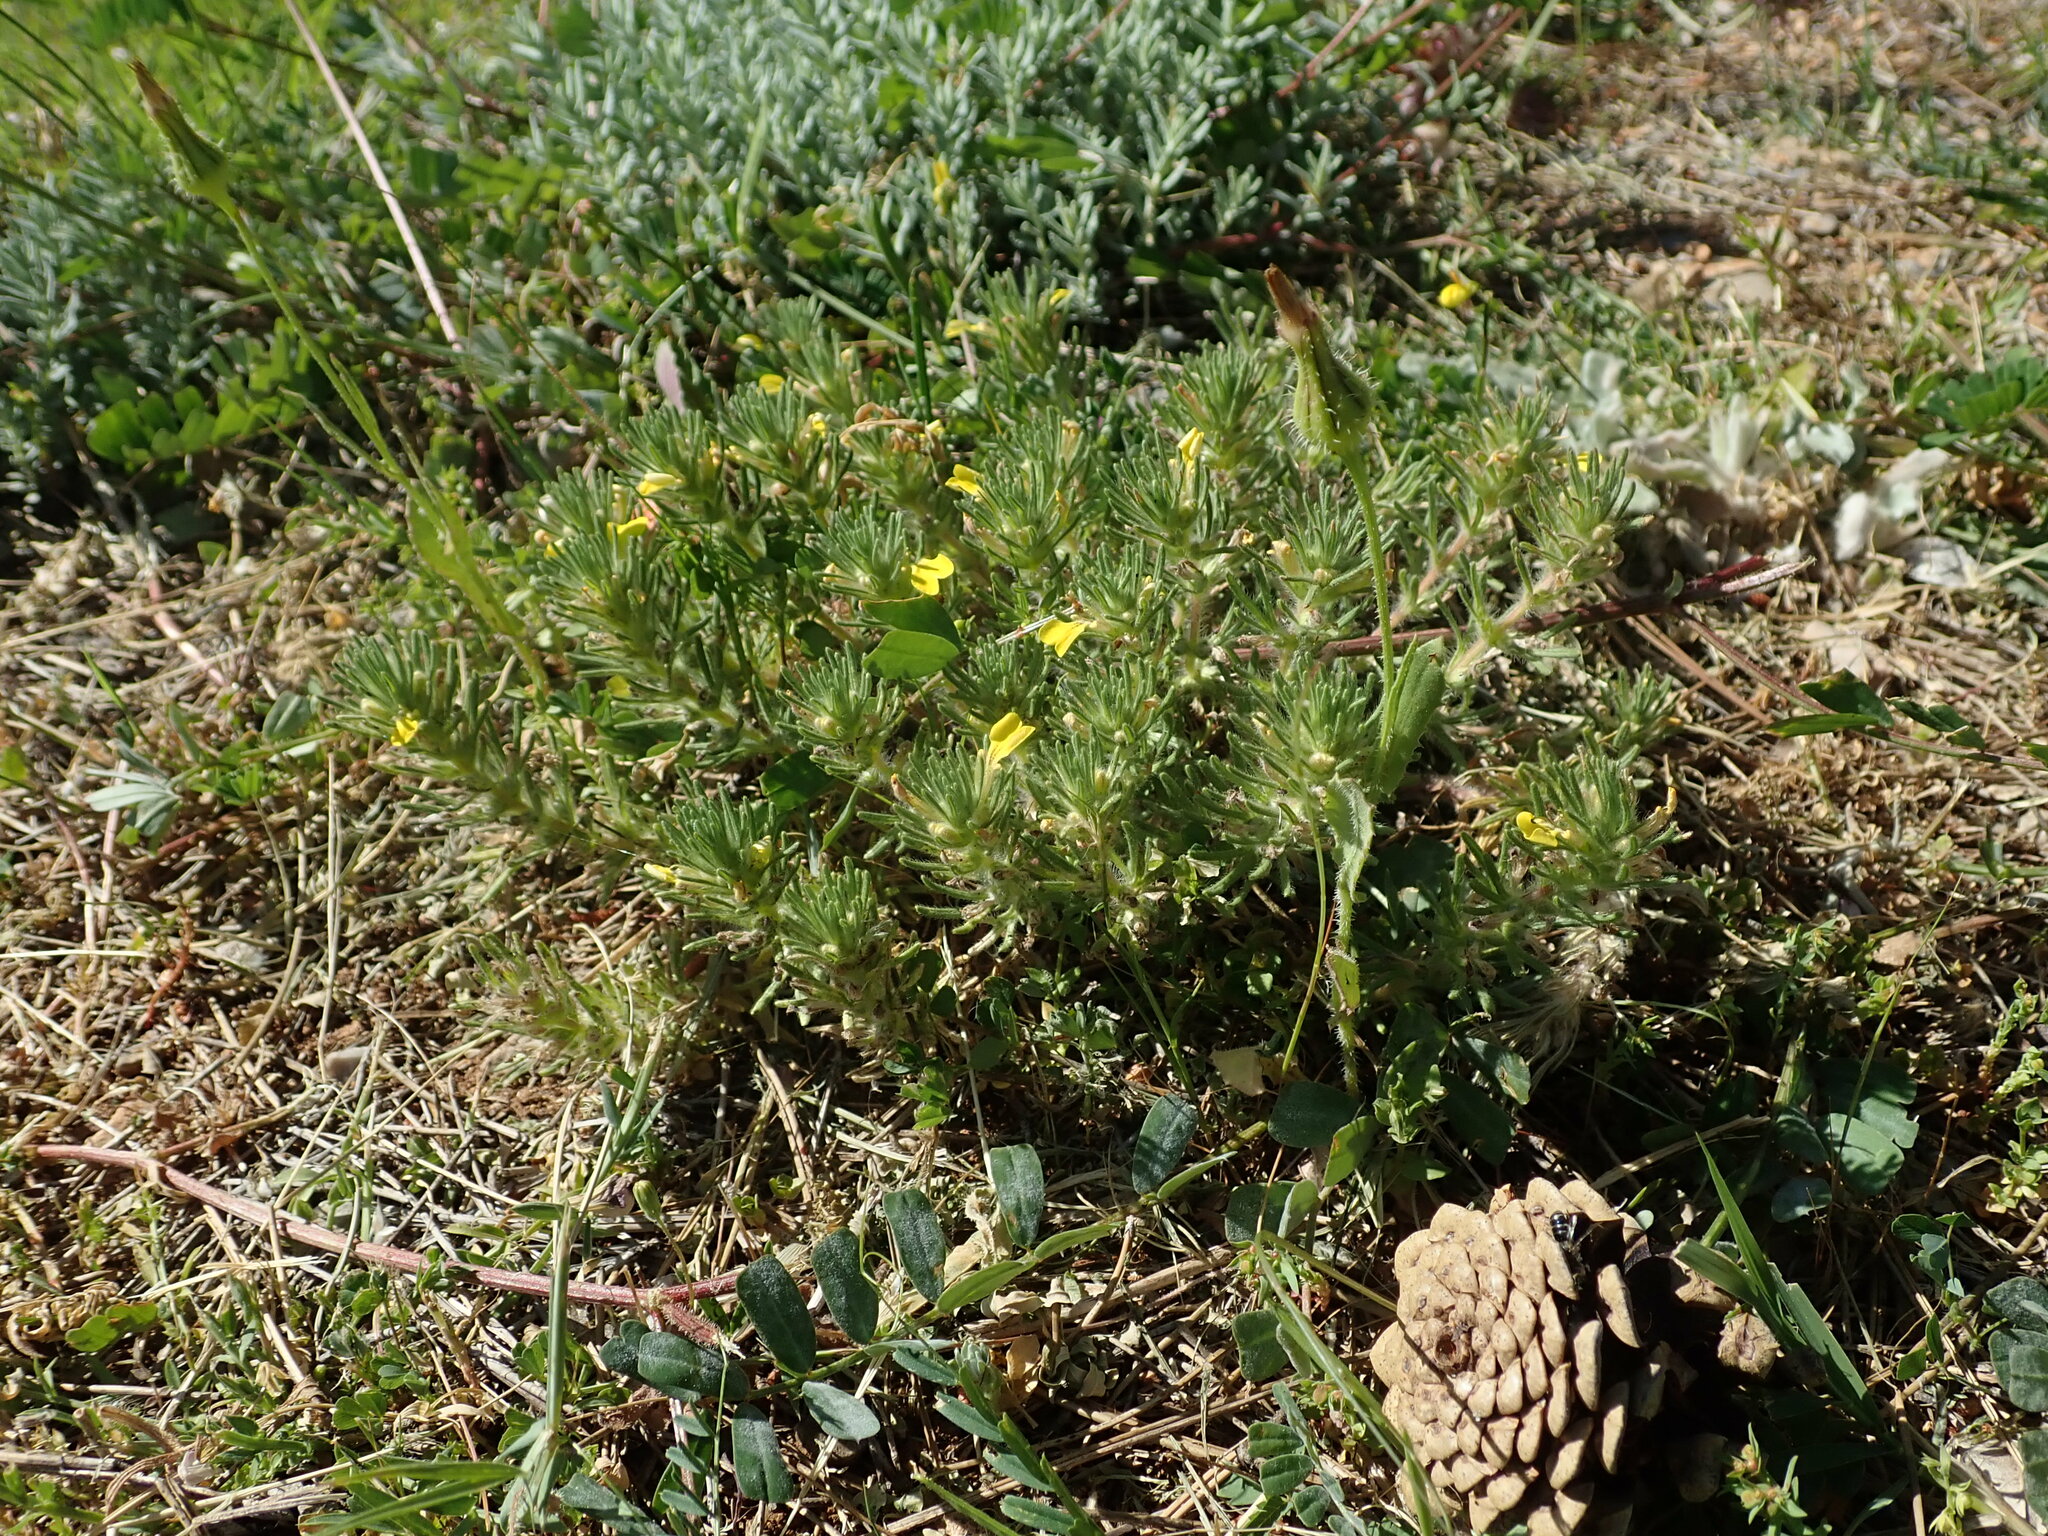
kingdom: Plantae
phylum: Tracheophyta
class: Magnoliopsida
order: Lamiales
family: Lamiaceae
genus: Ajuga
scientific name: Ajuga chamaepitys
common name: Ground-pine
